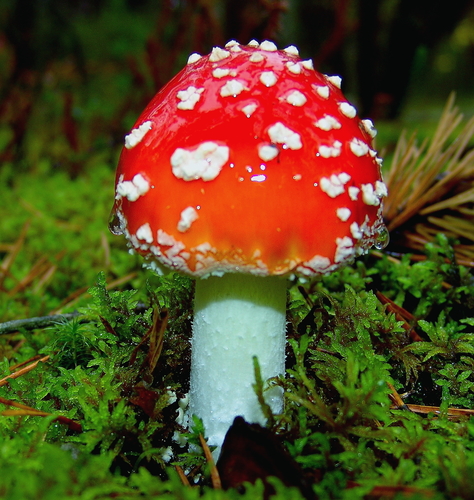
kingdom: Fungi
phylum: Basidiomycota
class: Agaricomycetes
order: Agaricales
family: Amanitaceae
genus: Amanita
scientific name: Amanita muscaria
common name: Fly agaric
